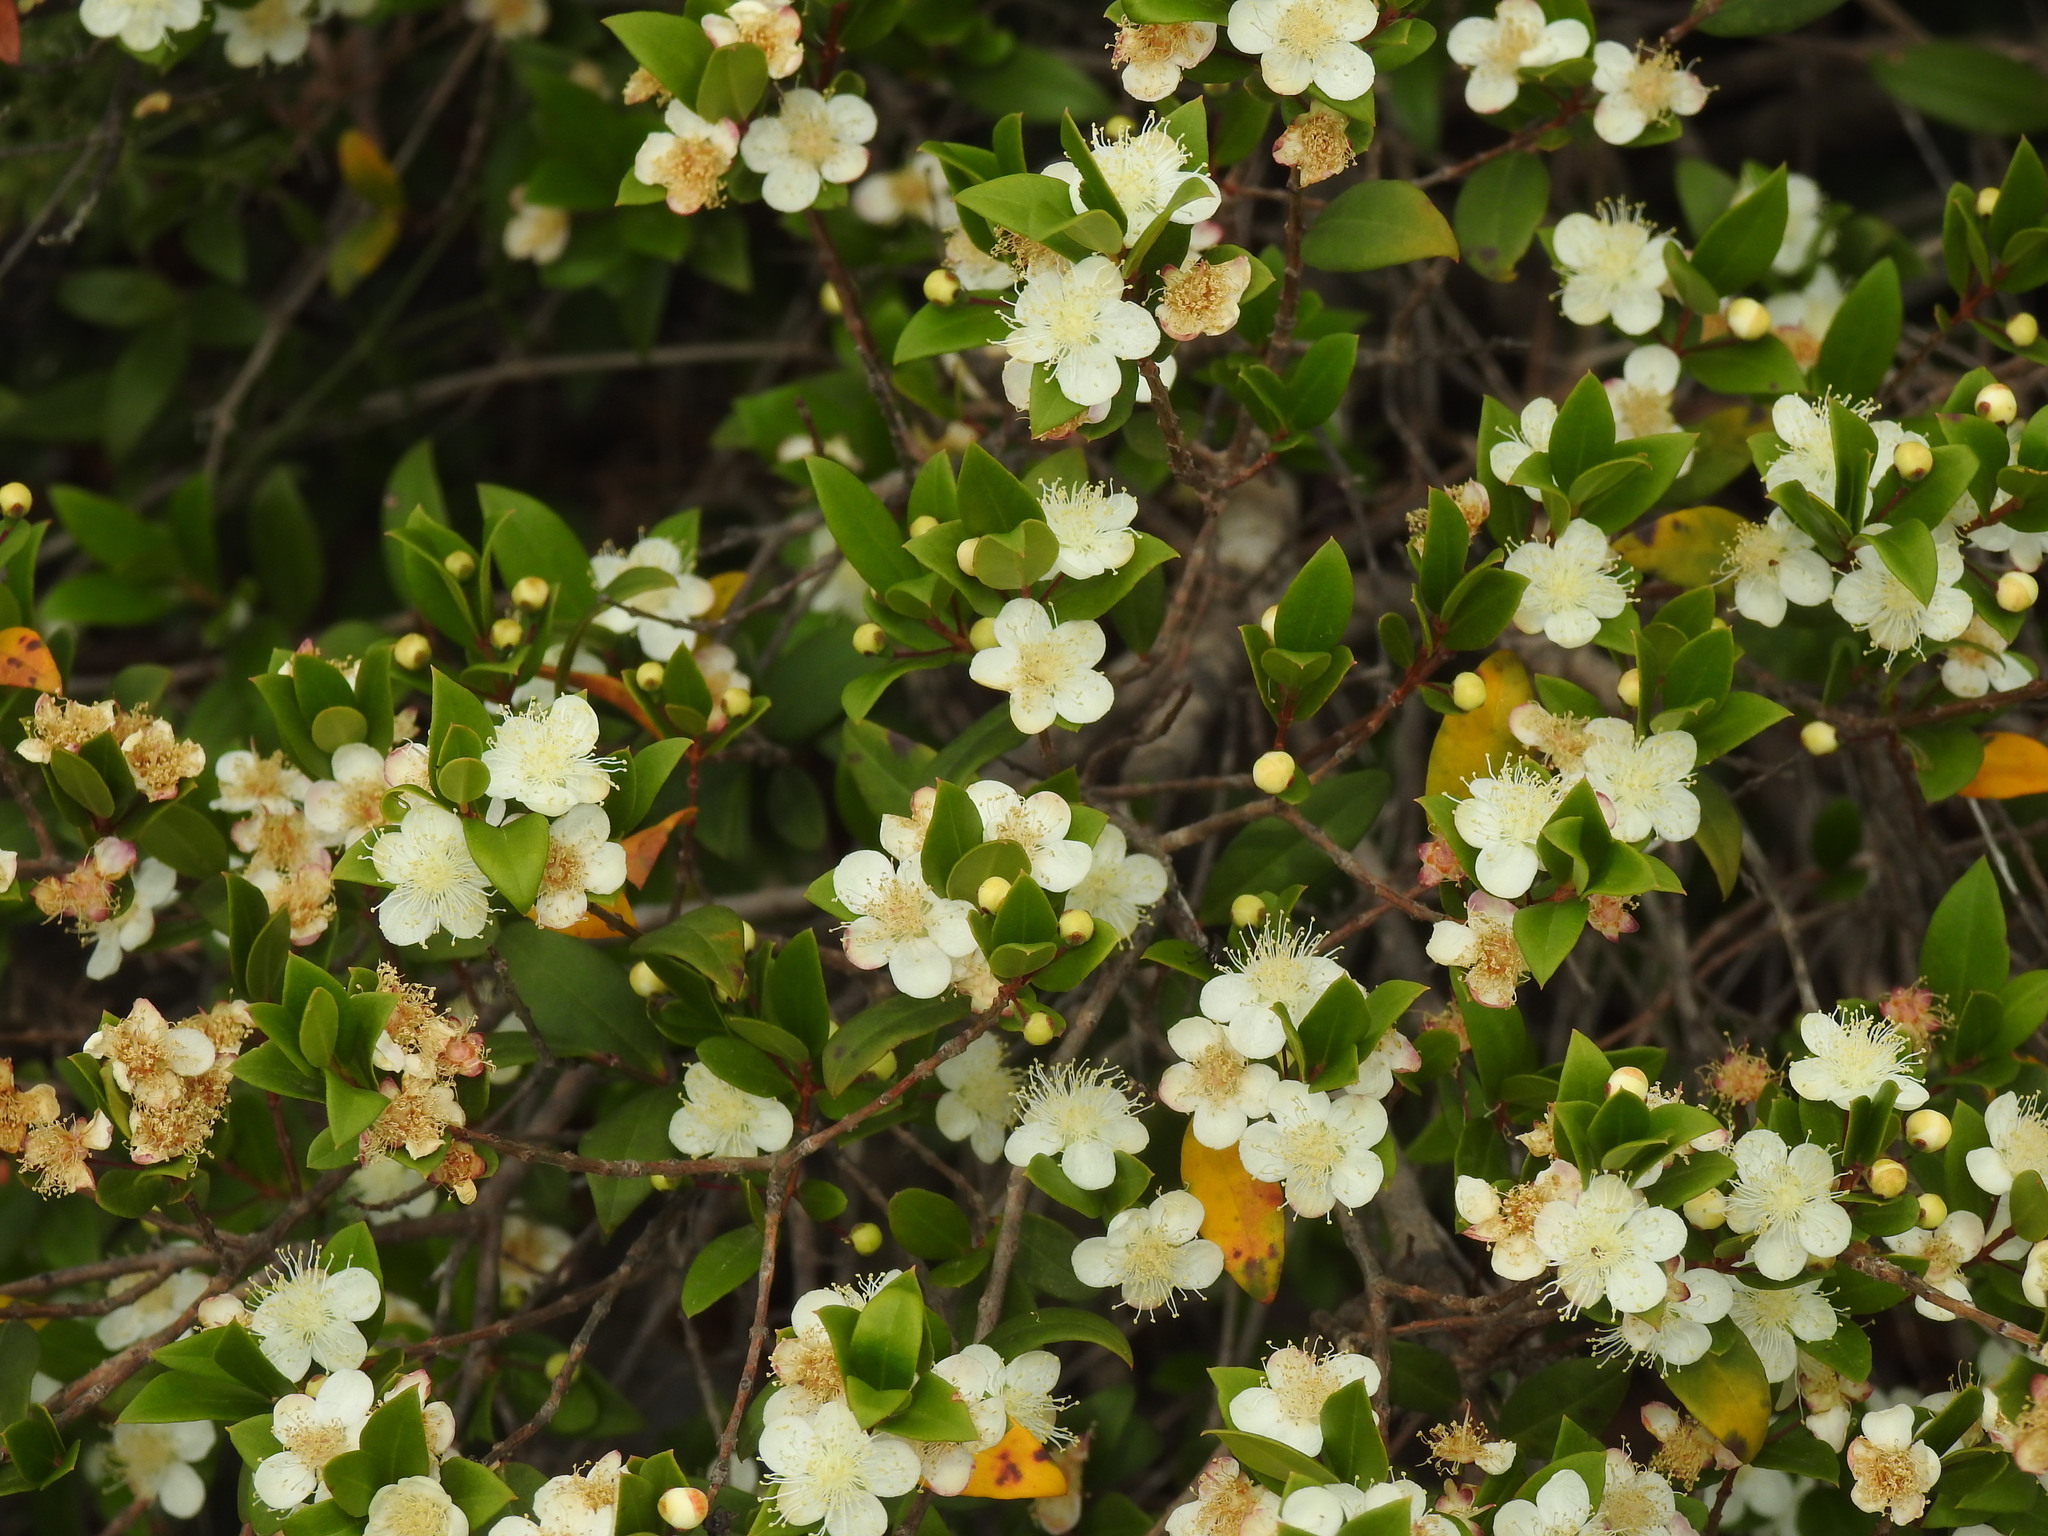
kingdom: Plantae
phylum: Tracheophyta
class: Magnoliopsida
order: Myrtales
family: Myrtaceae
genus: Myrtus
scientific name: Myrtus communis
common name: Myrtle
